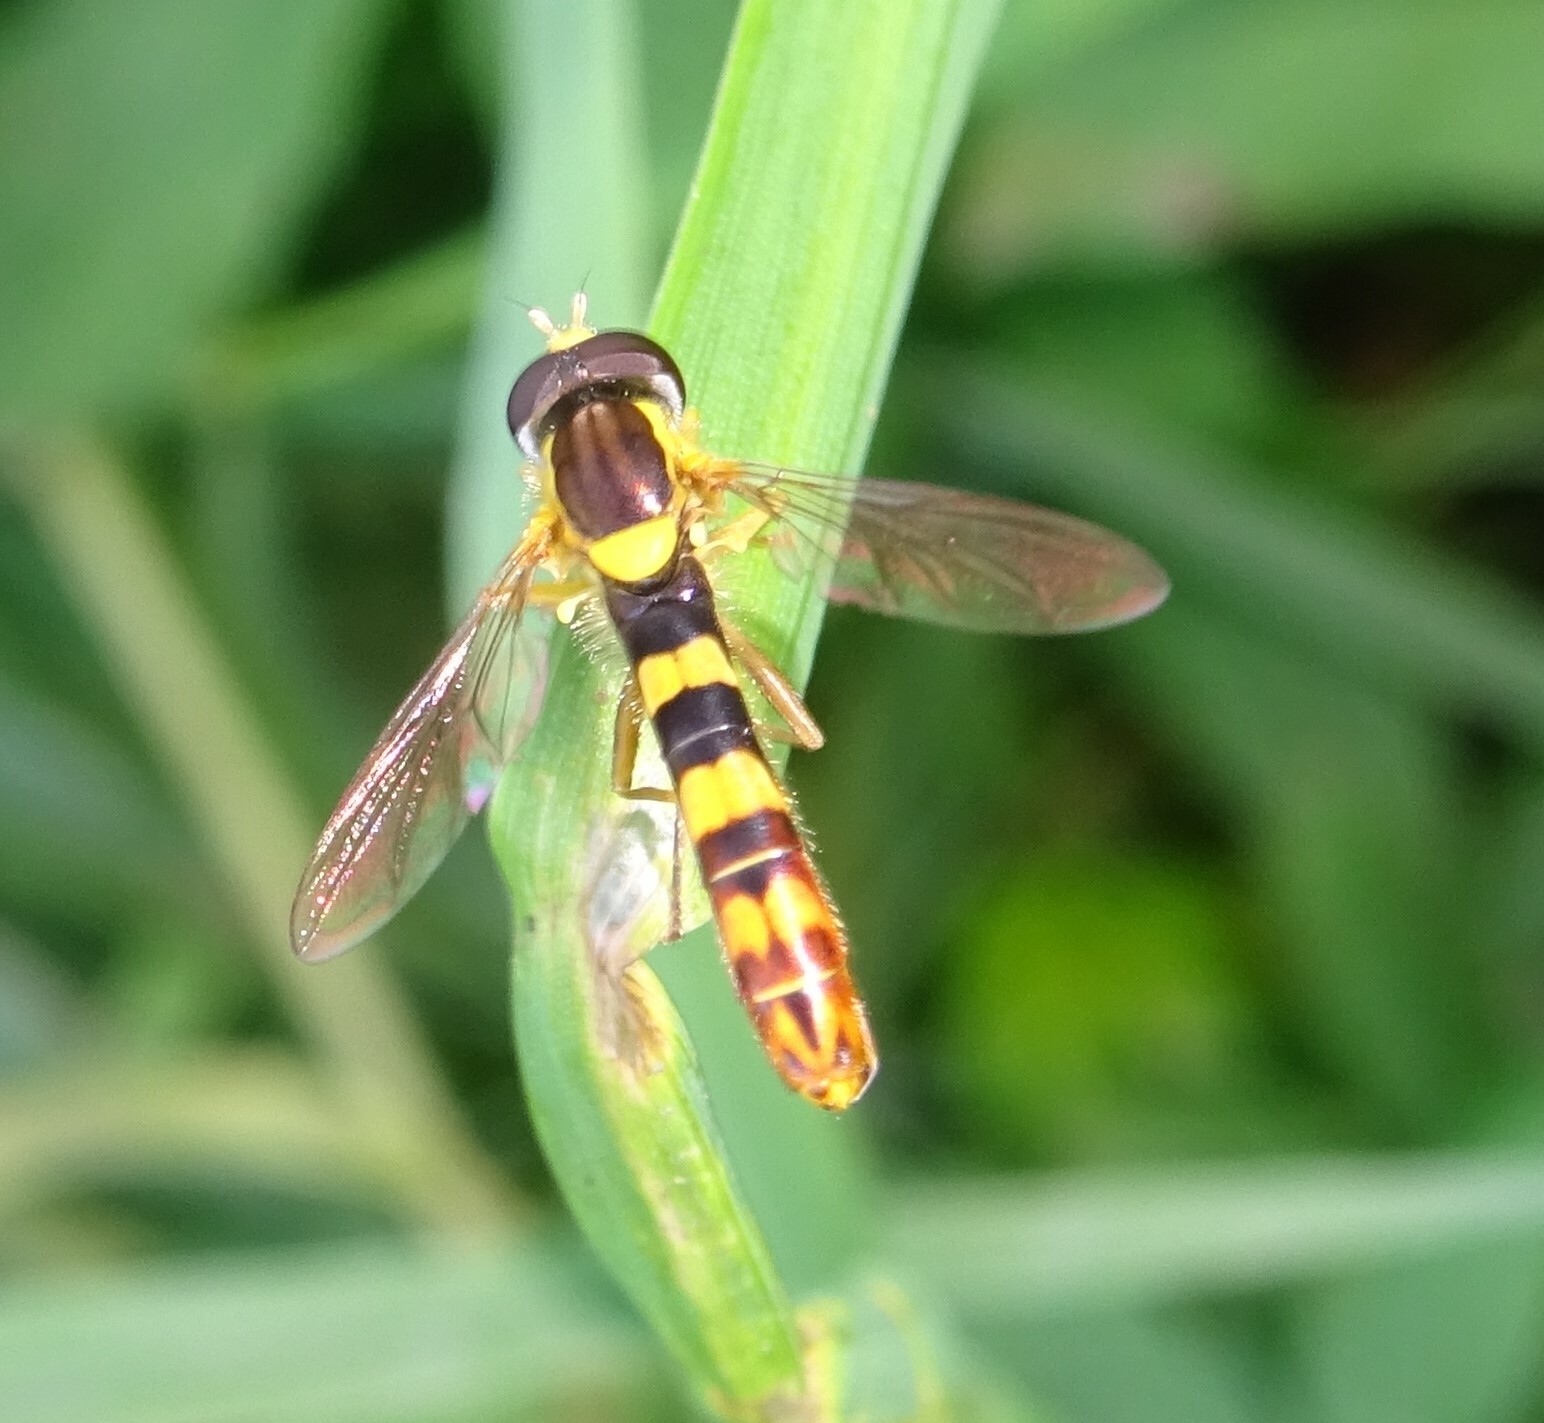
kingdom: Animalia
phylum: Arthropoda
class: Insecta
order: Diptera
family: Syrphidae
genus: Sphaerophoria
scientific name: Sphaerophoria scripta
